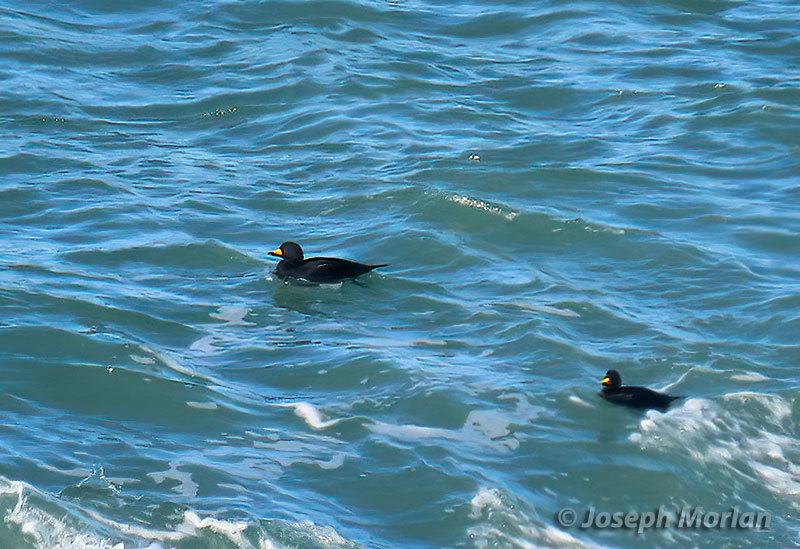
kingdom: Animalia
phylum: Chordata
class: Aves
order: Anseriformes
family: Anatidae
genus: Melanitta
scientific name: Melanitta americana
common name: Black scoter
